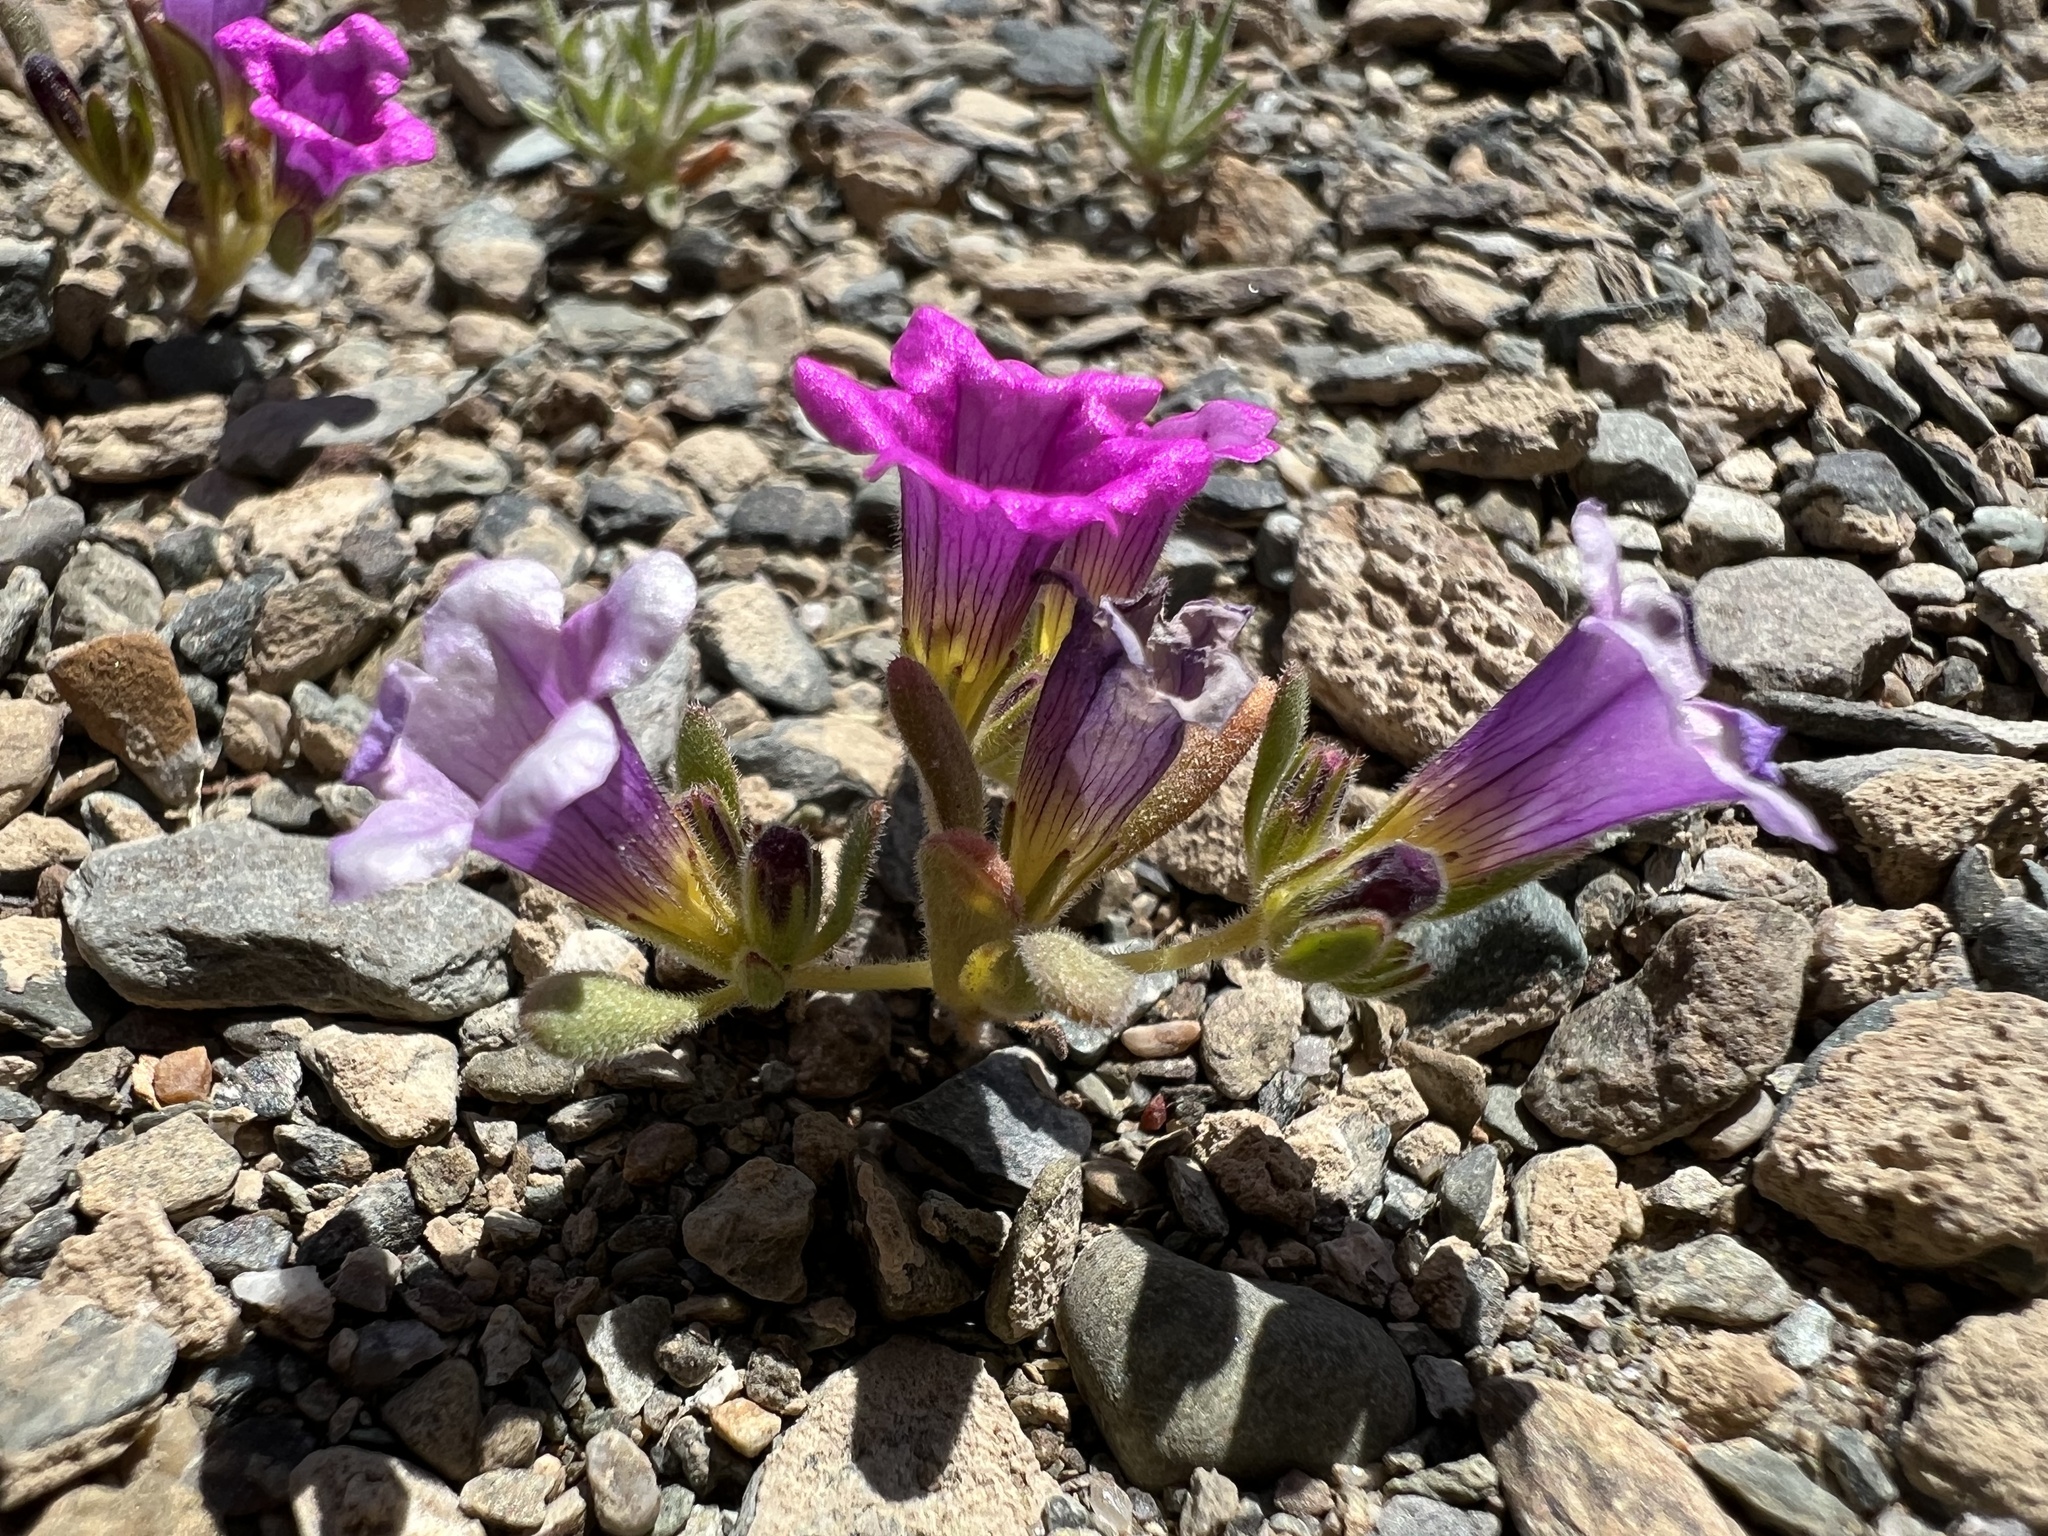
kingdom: Plantae
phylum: Tracheophyta
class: Magnoliopsida
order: Boraginales
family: Namaceae
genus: Nama
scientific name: Nama demissa
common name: Leafy nama
